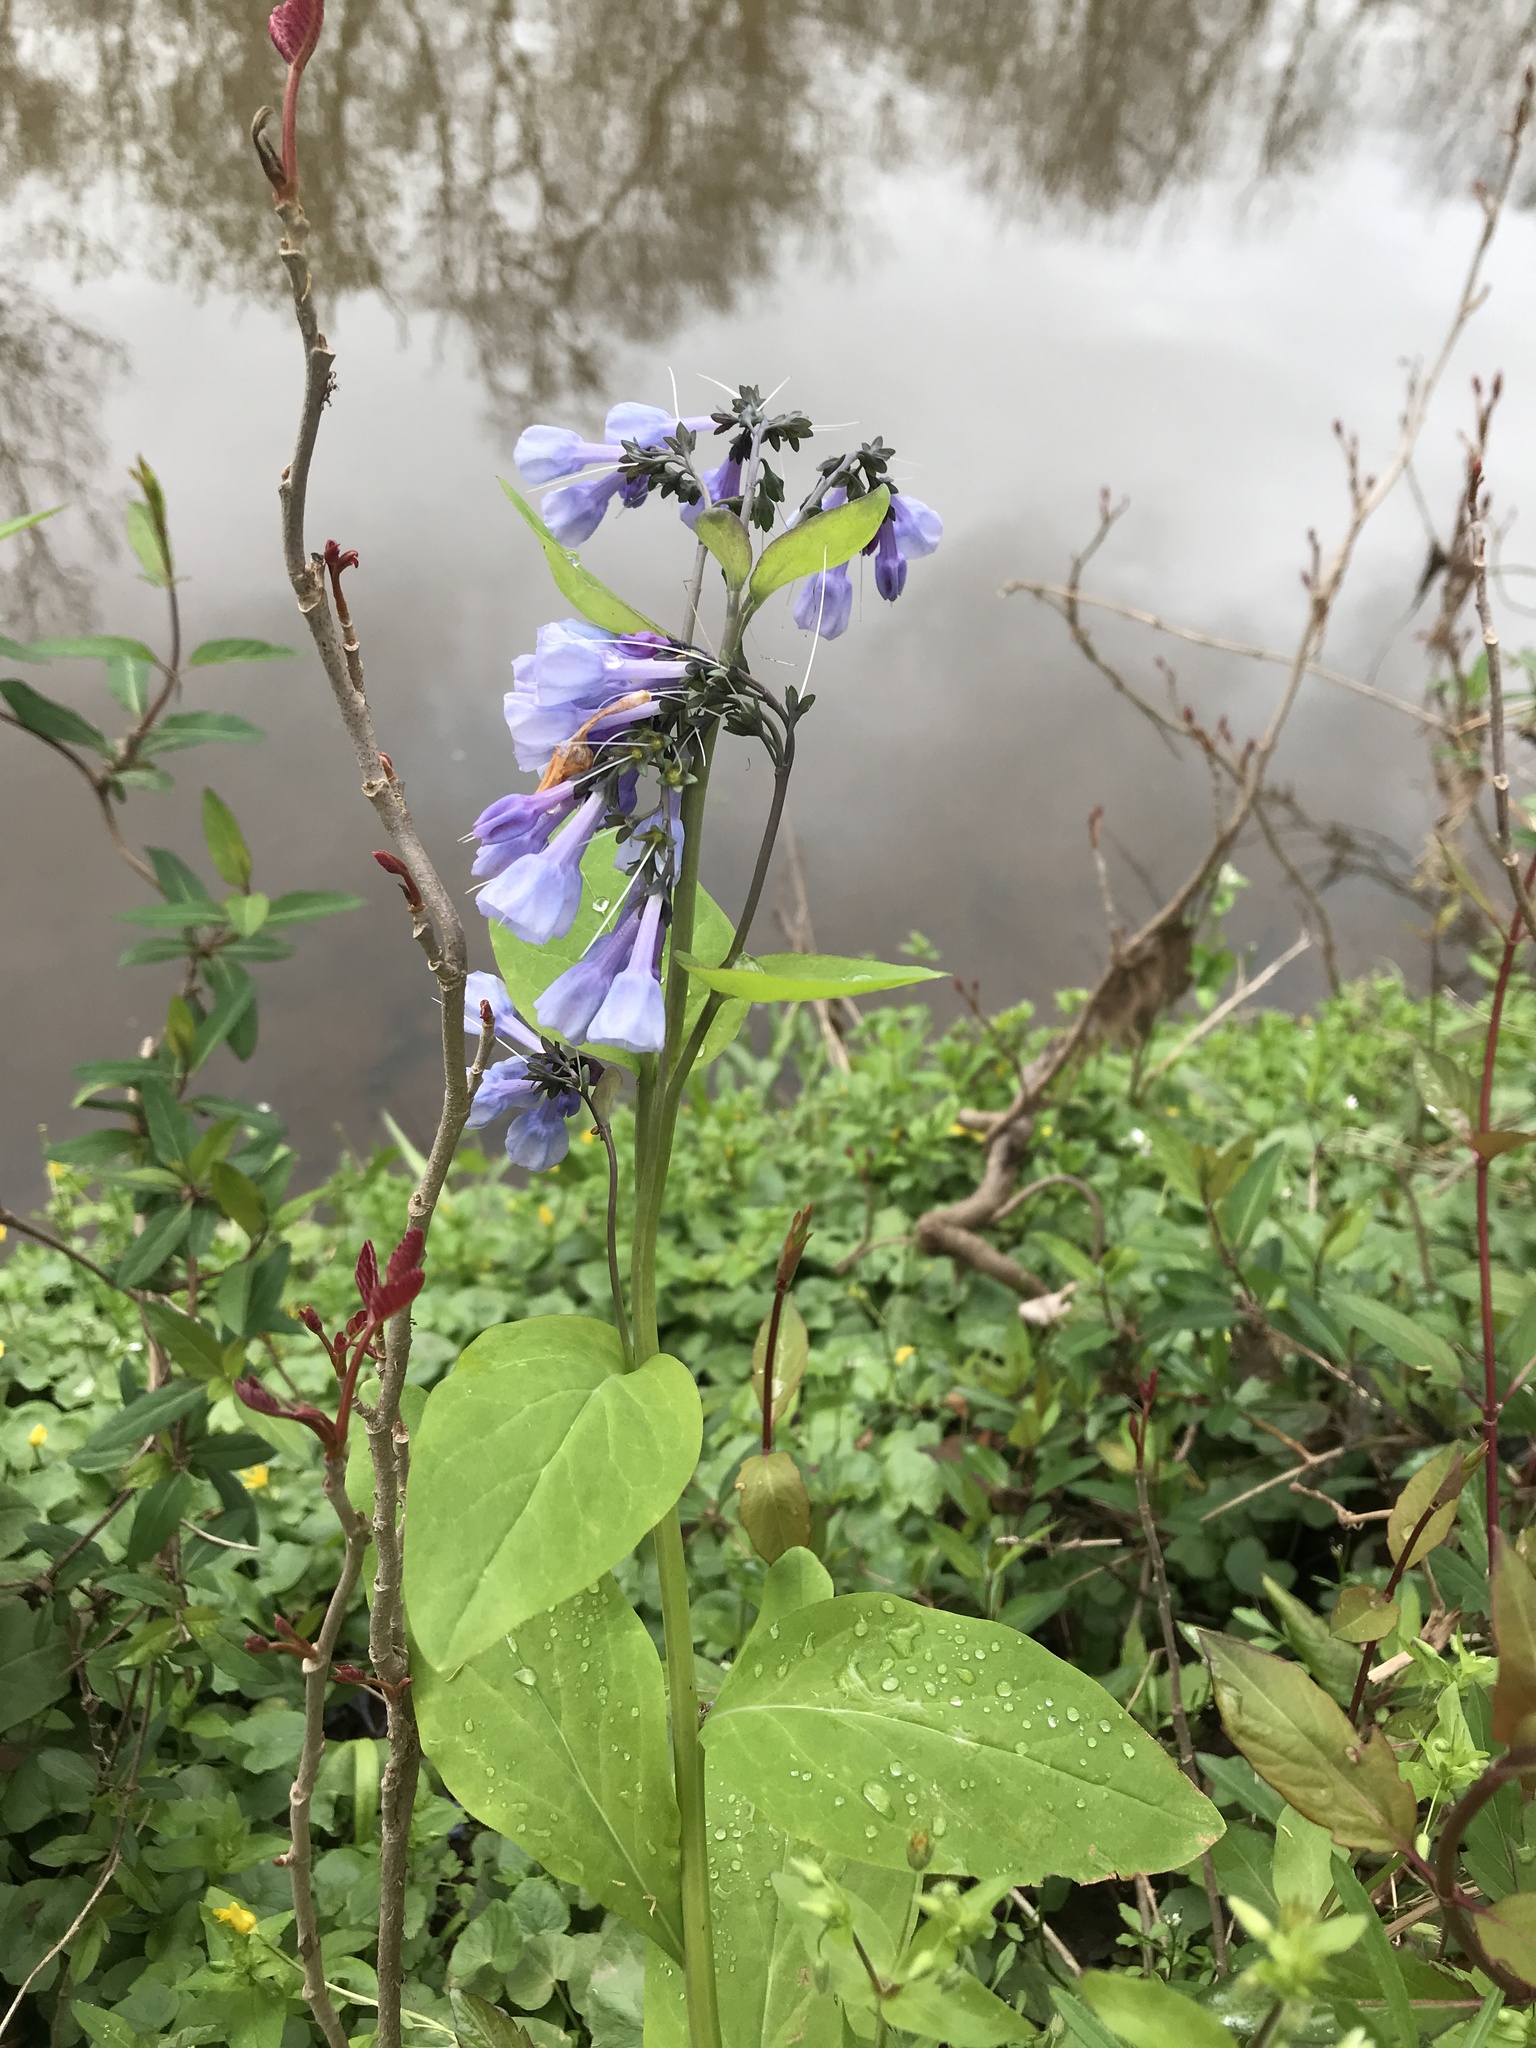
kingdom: Plantae
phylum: Tracheophyta
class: Magnoliopsida
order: Boraginales
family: Boraginaceae
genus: Mertensia
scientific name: Mertensia virginica
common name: Virginia bluebells
